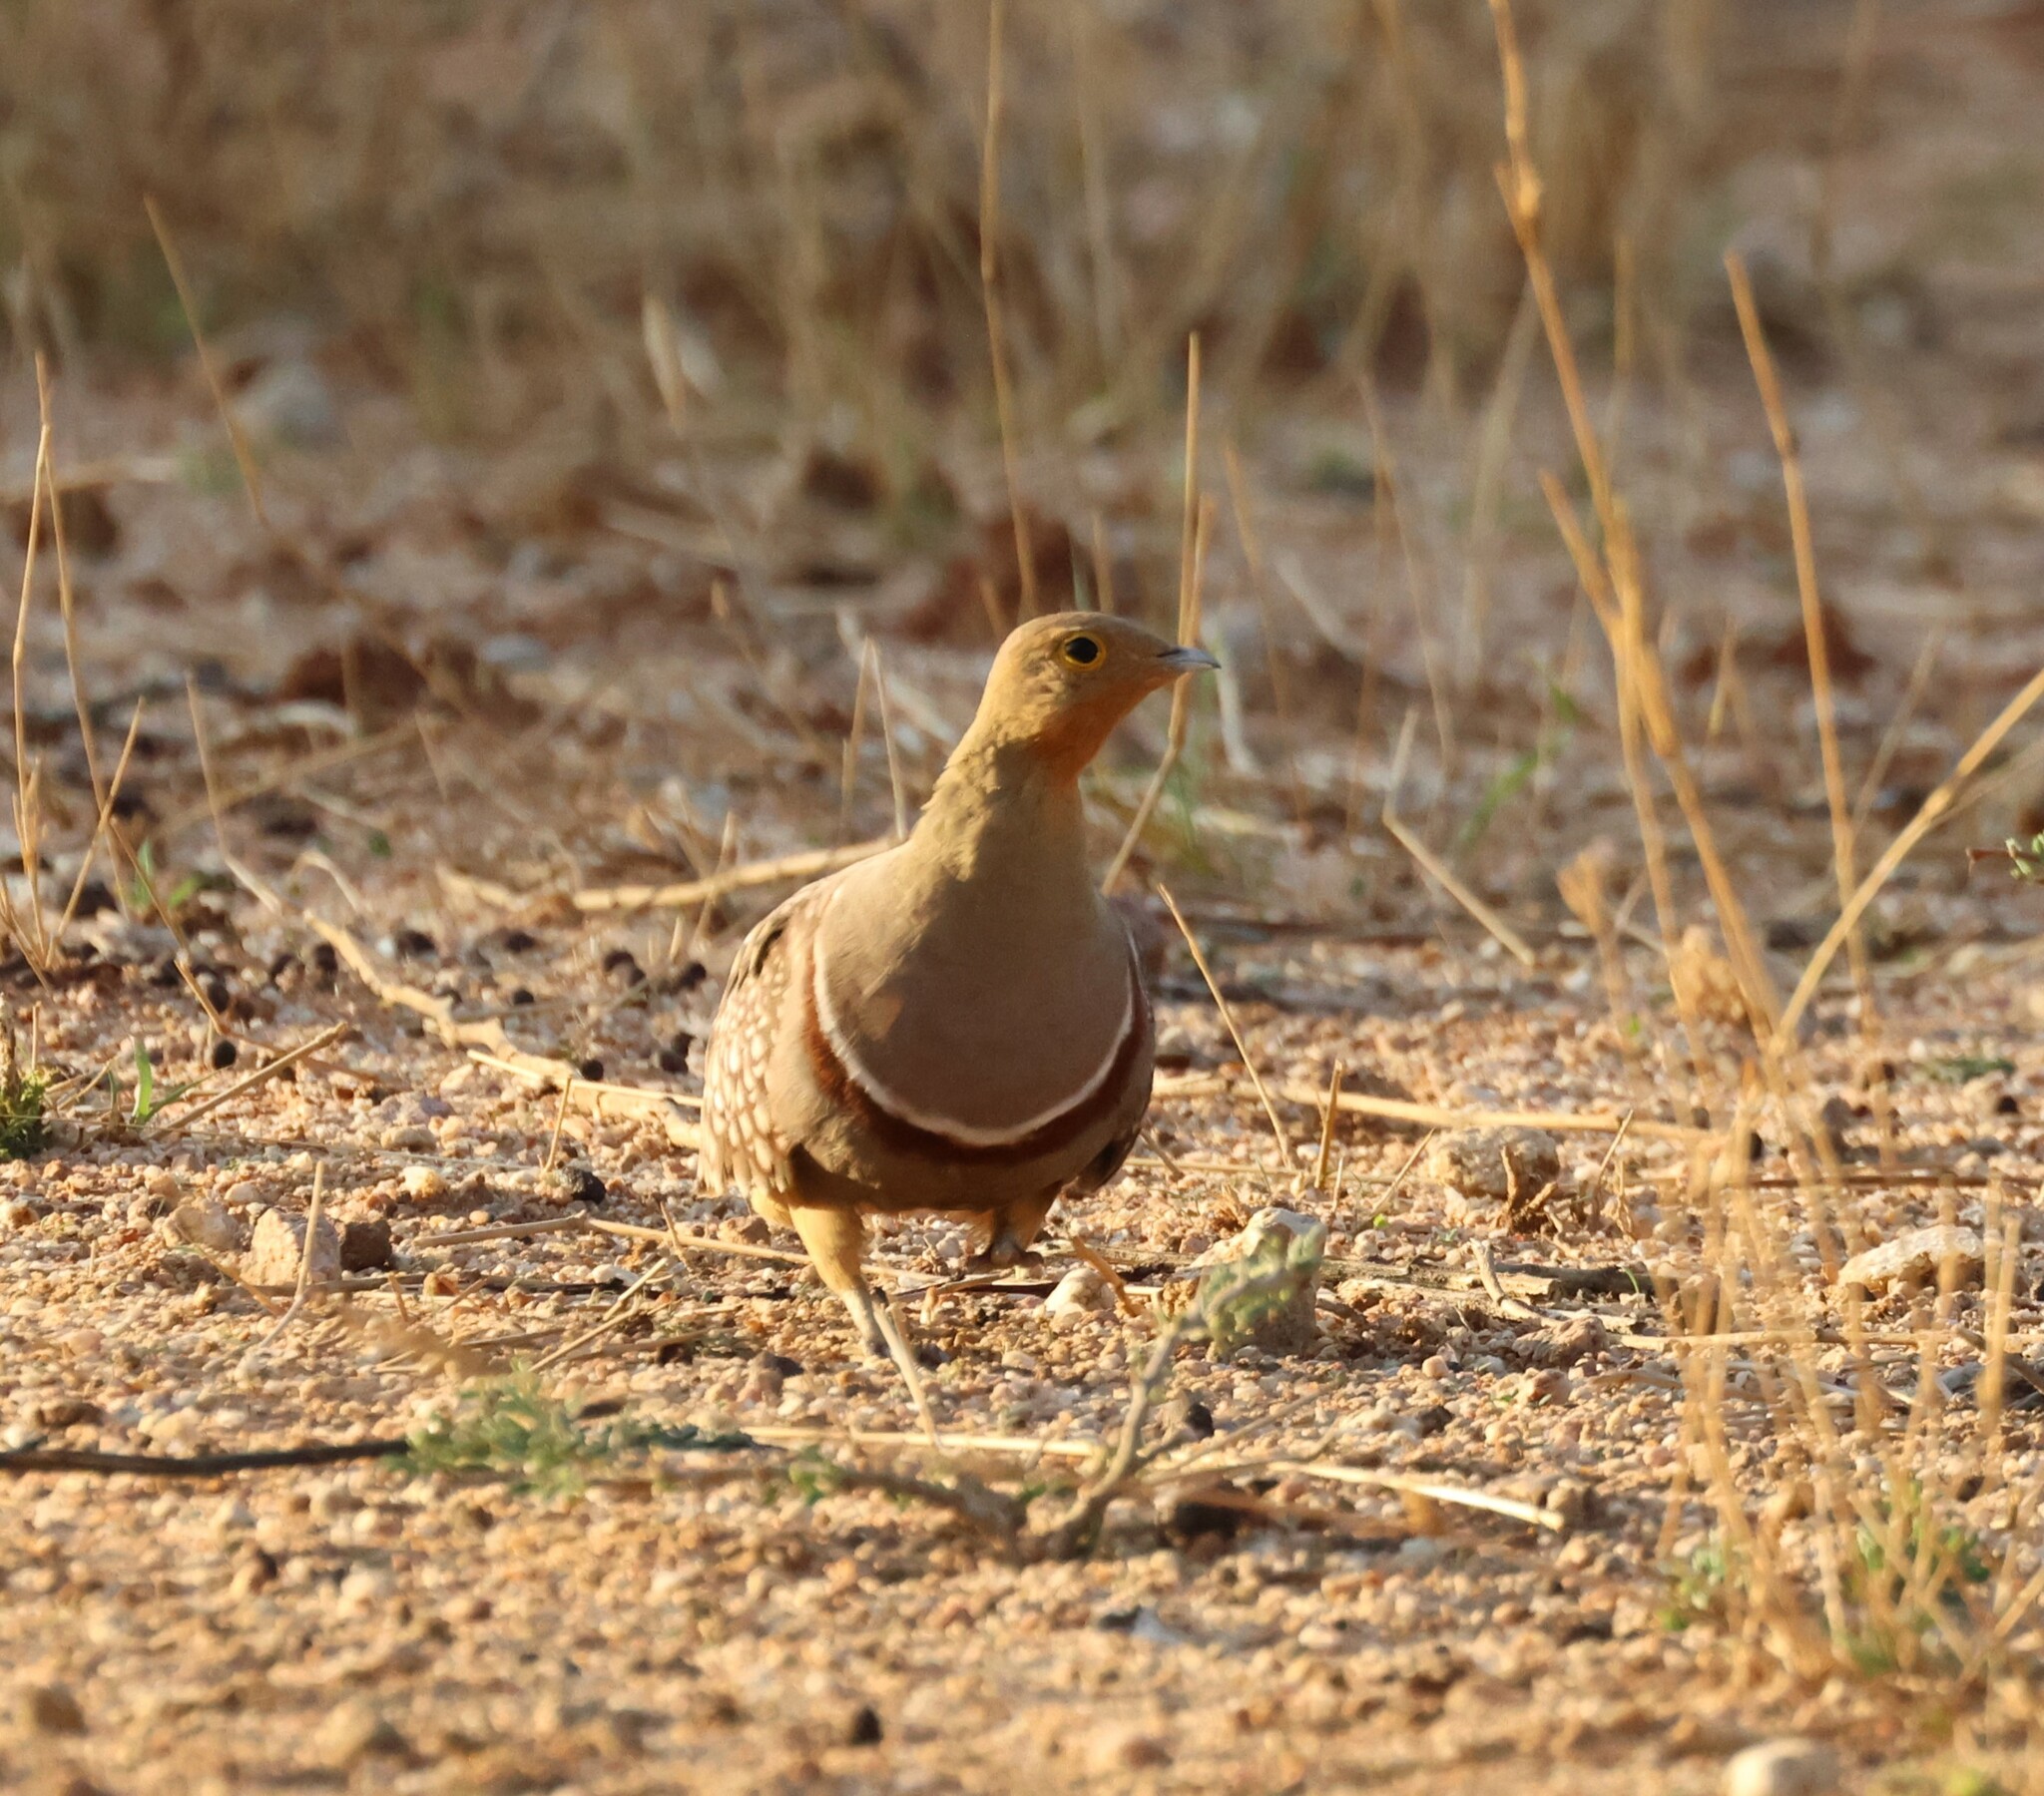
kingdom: Animalia
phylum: Chordata
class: Aves
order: Pteroclidiformes
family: Pteroclididae
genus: Pterocles
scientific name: Pterocles namaqua
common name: Namaqua sandgrouse
